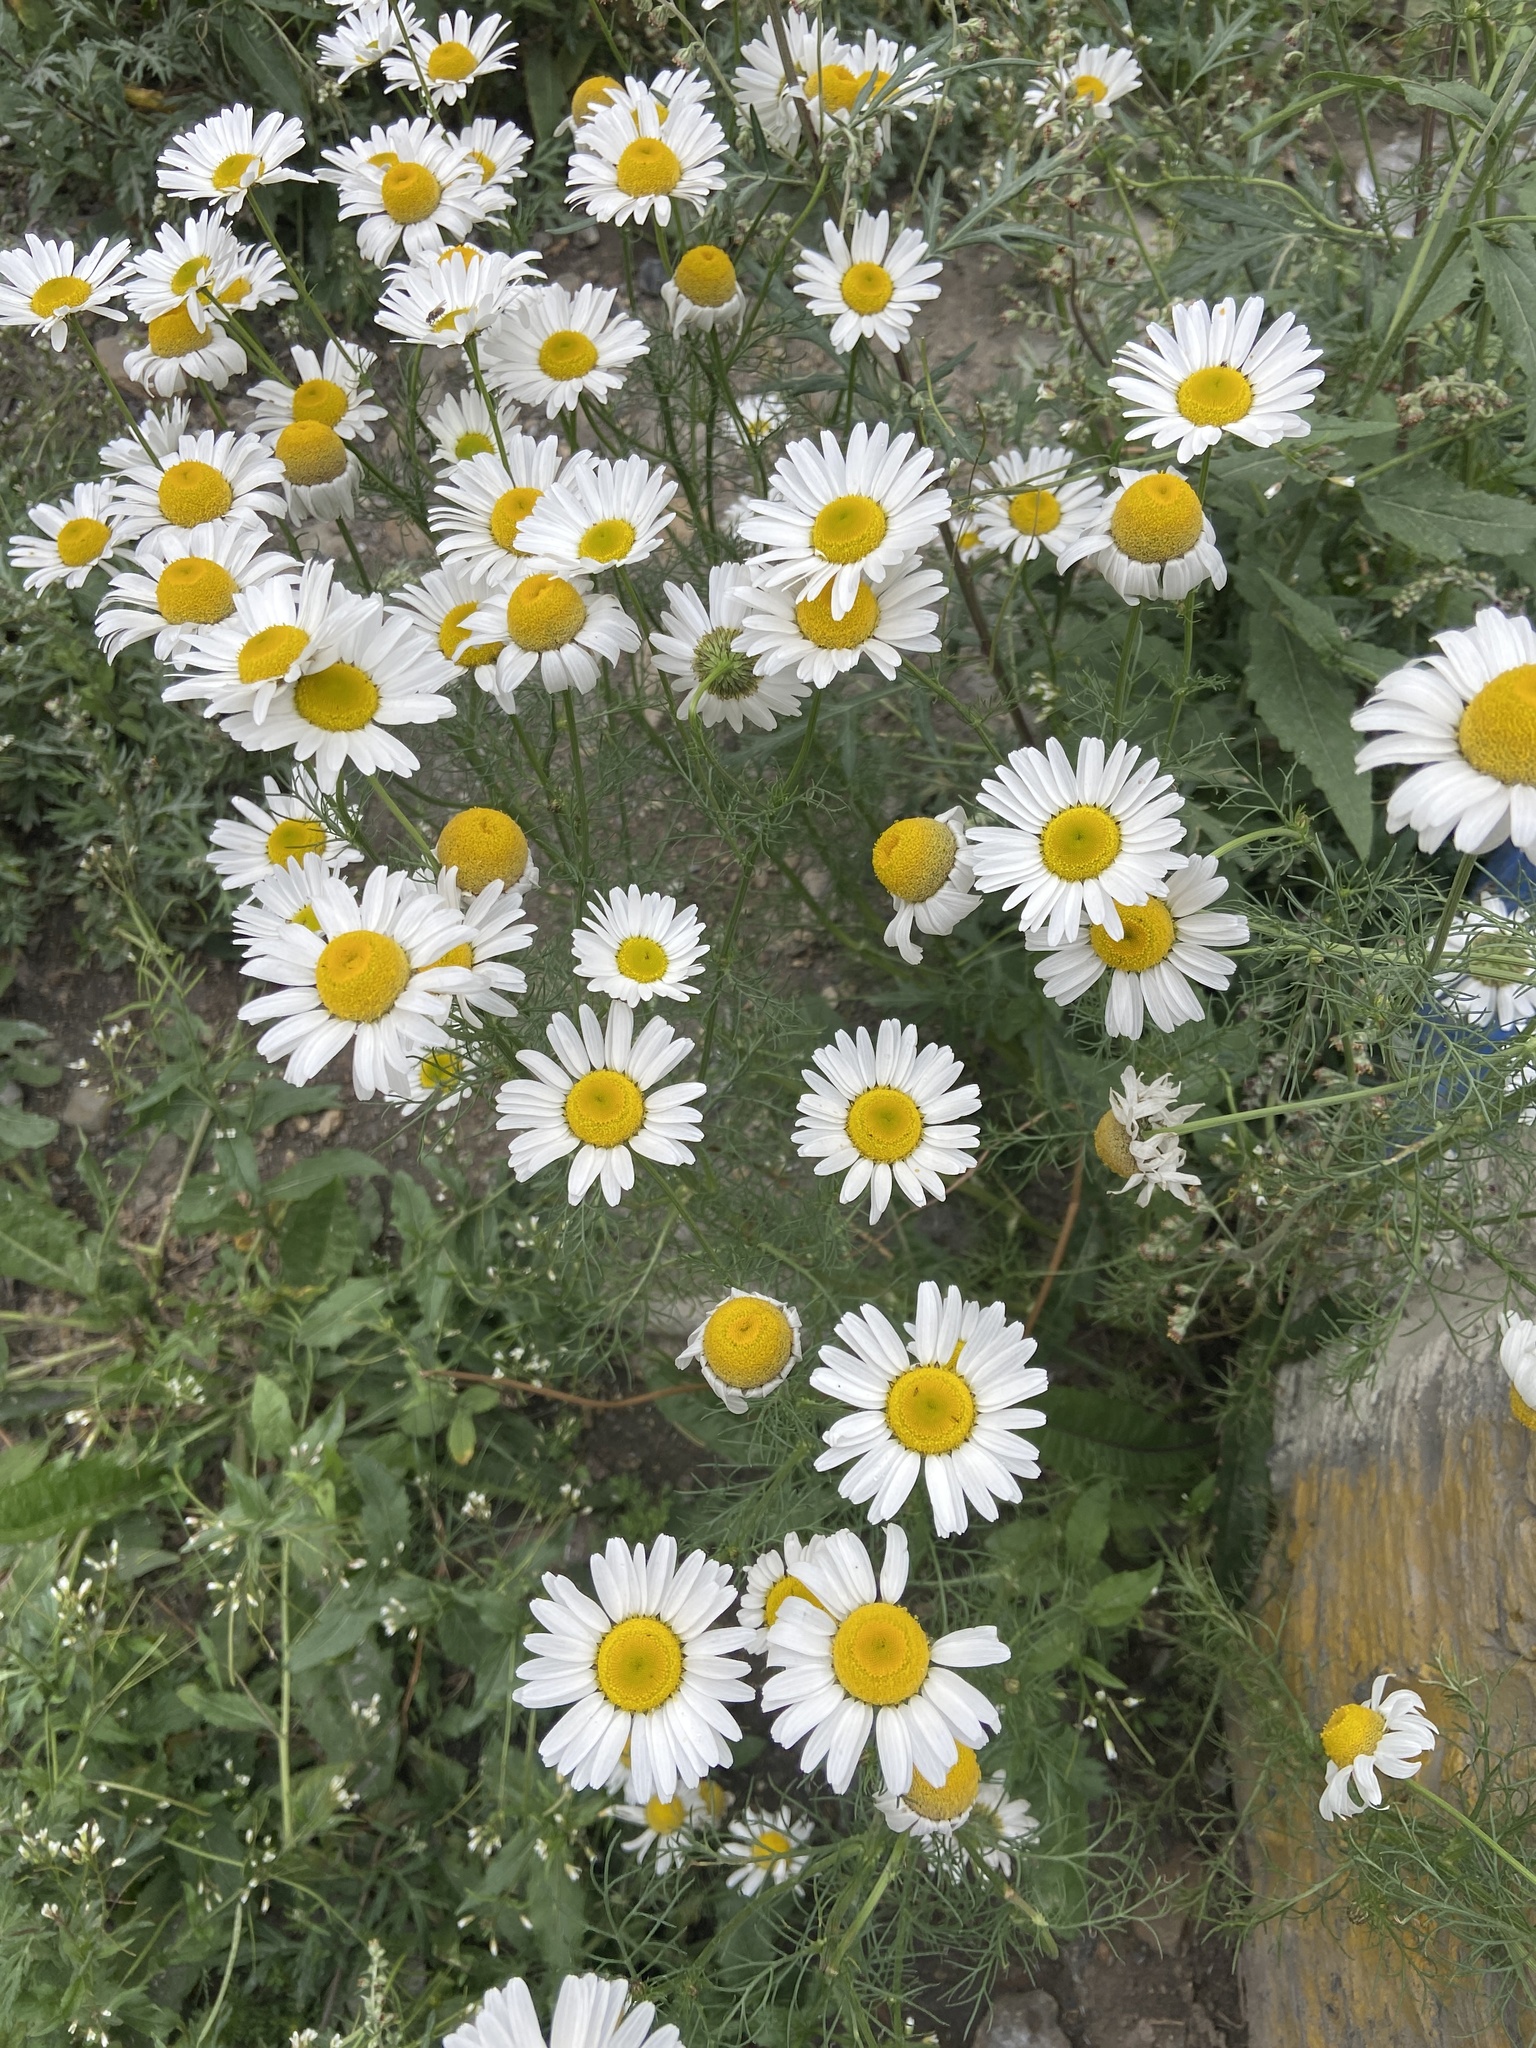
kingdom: Plantae
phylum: Tracheophyta
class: Magnoliopsida
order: Asterales
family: Asteraceae
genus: Tripleurospermum
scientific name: Tripleurospermum inodorum
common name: Scentless mayweed
